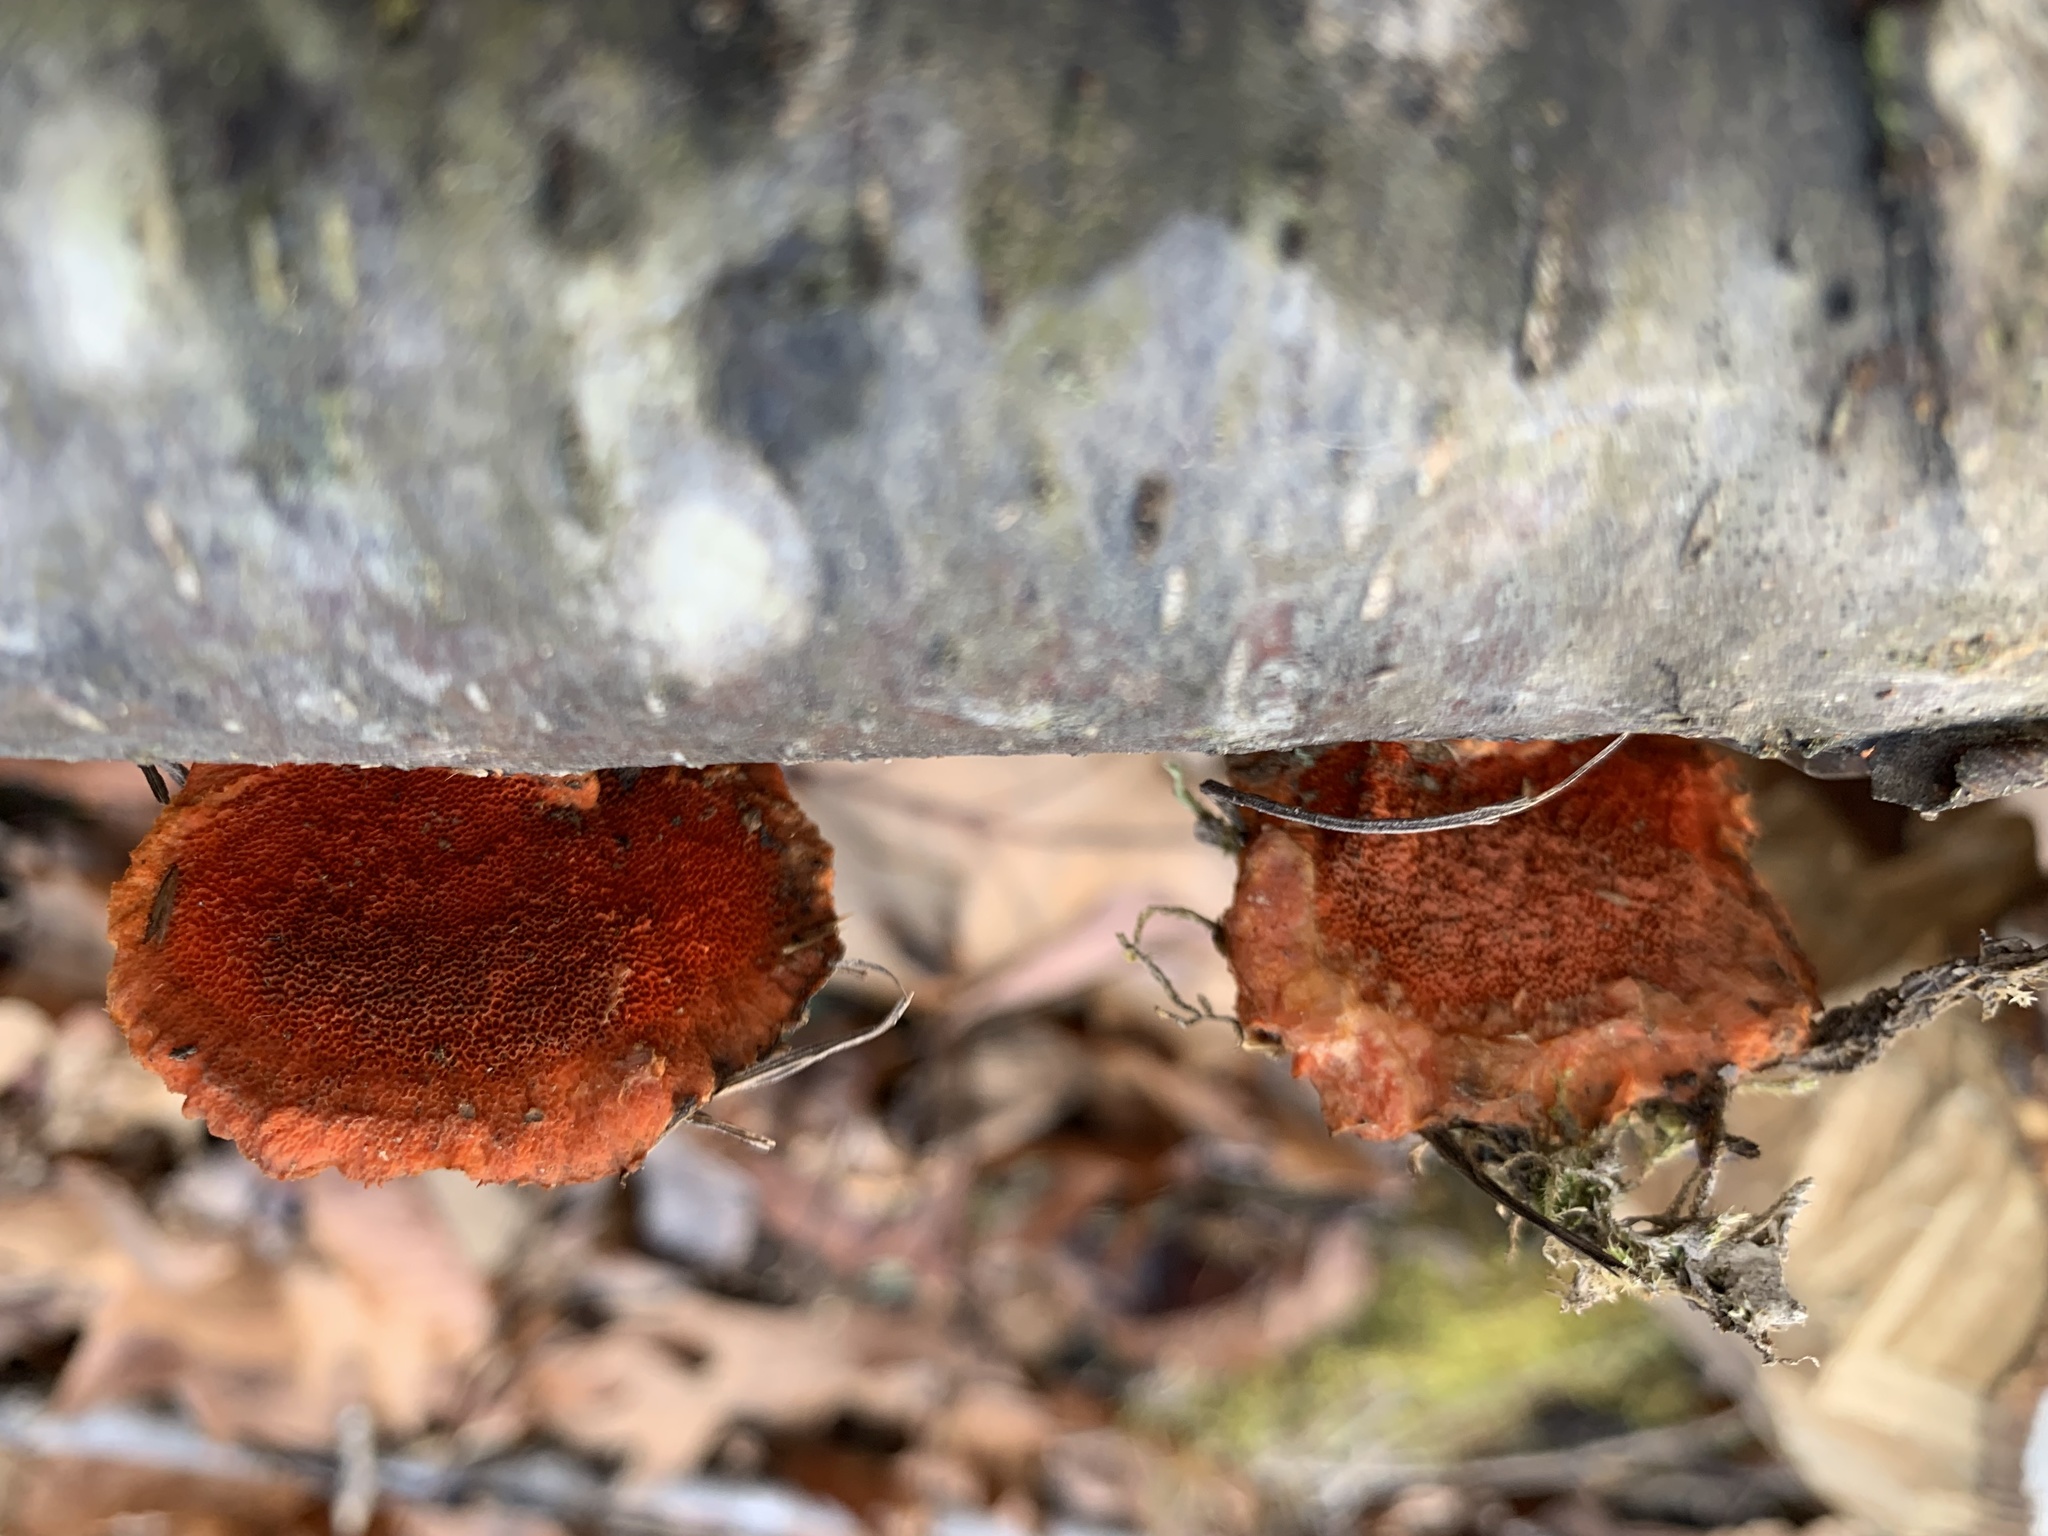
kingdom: Fungi
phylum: Basidiomycota
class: Agaricomycetes
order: Polyporales
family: Polyporaceae
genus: Trametes
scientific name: Trametes cinnabarina
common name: Northern cinnabar polypore
